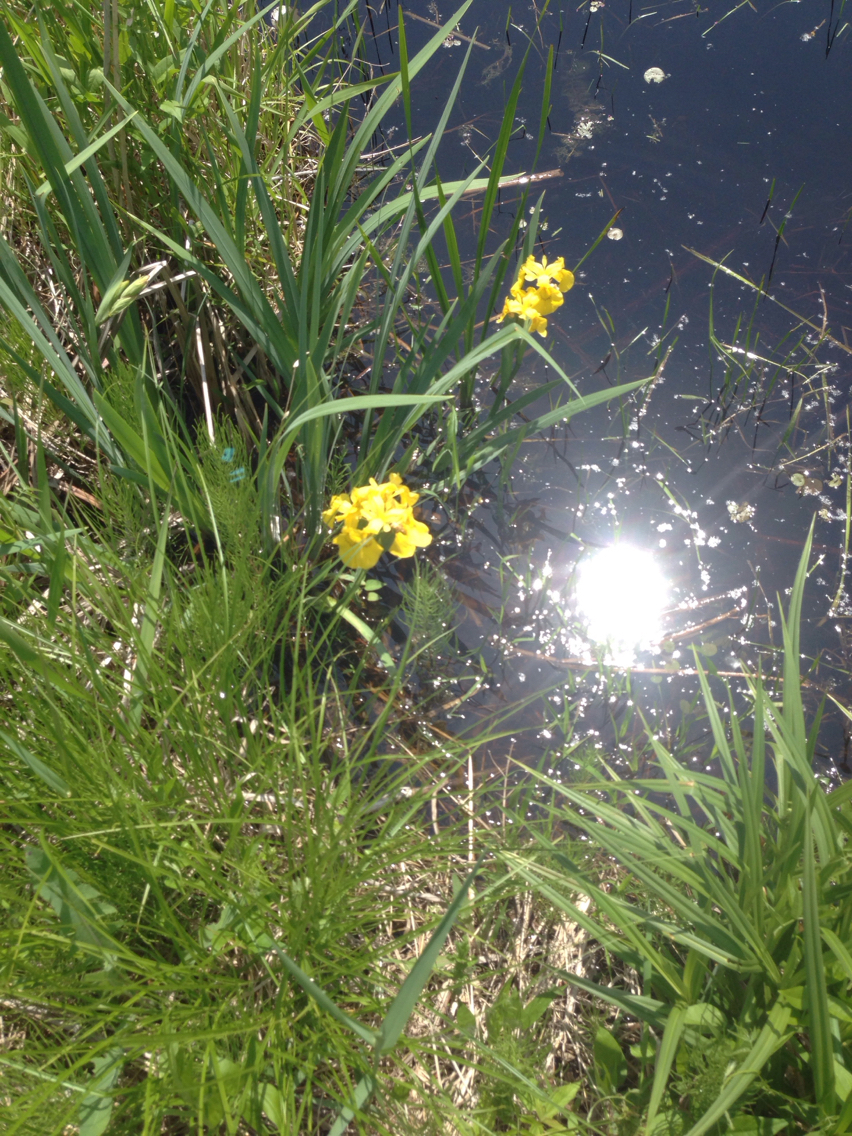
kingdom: Plantae
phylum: Tracheophyta
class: Liliopsida
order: Asparagales
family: Iridaceae
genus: Iris
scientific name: Iris pseudacorus
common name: Yellow flag
